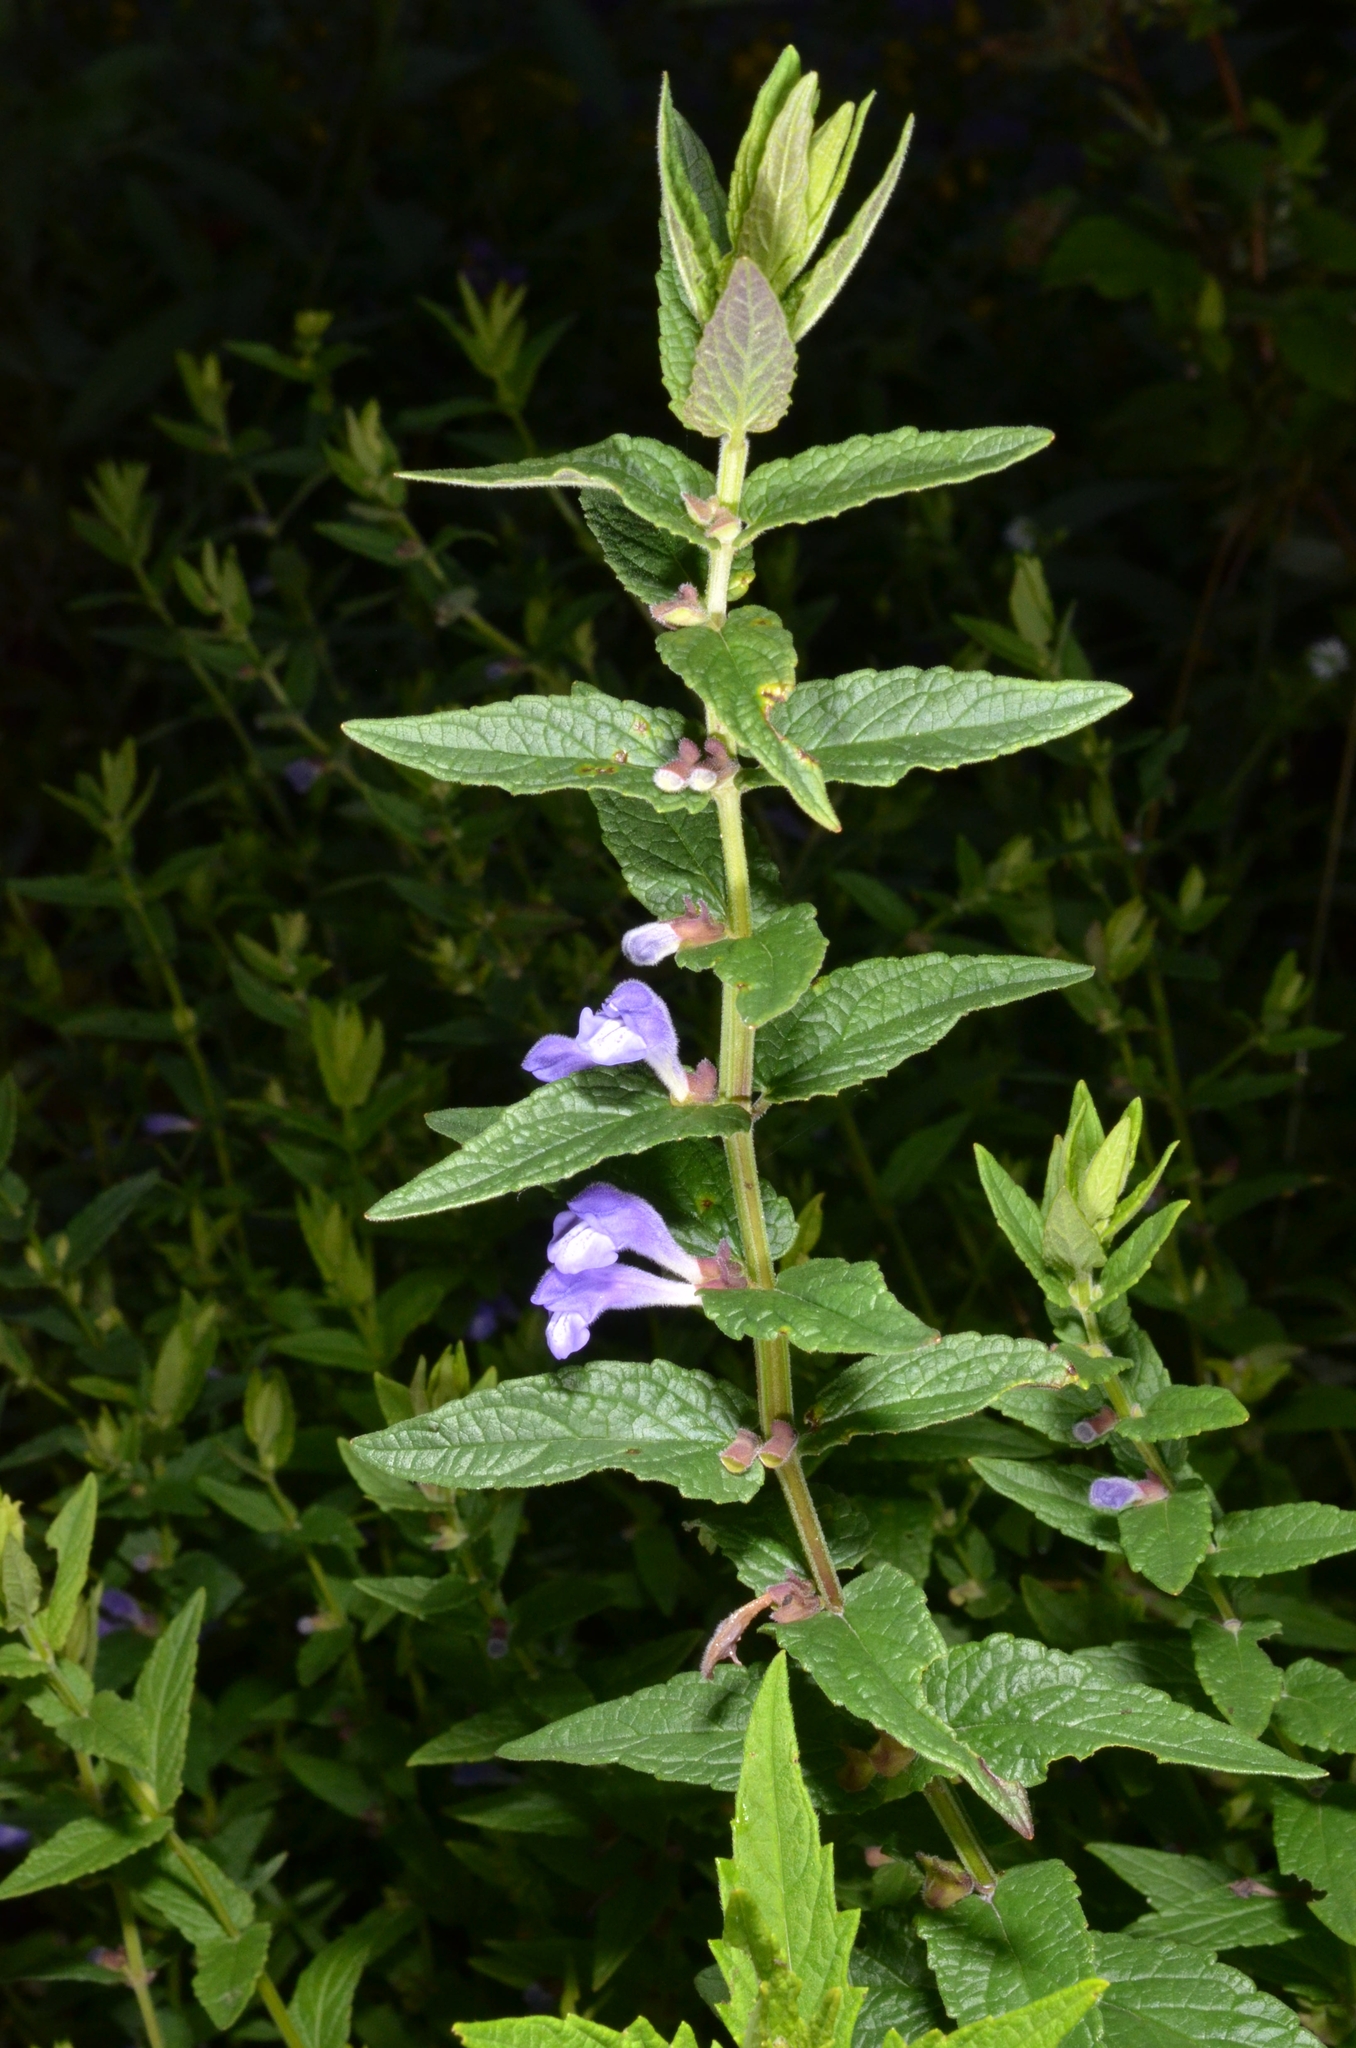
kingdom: Plantae
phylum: Tracheophyta
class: Magnoliopsida
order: Lamiales
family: Lamiaceae
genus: Scutellaria
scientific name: Scutellaria galericulata
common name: Skullcap
